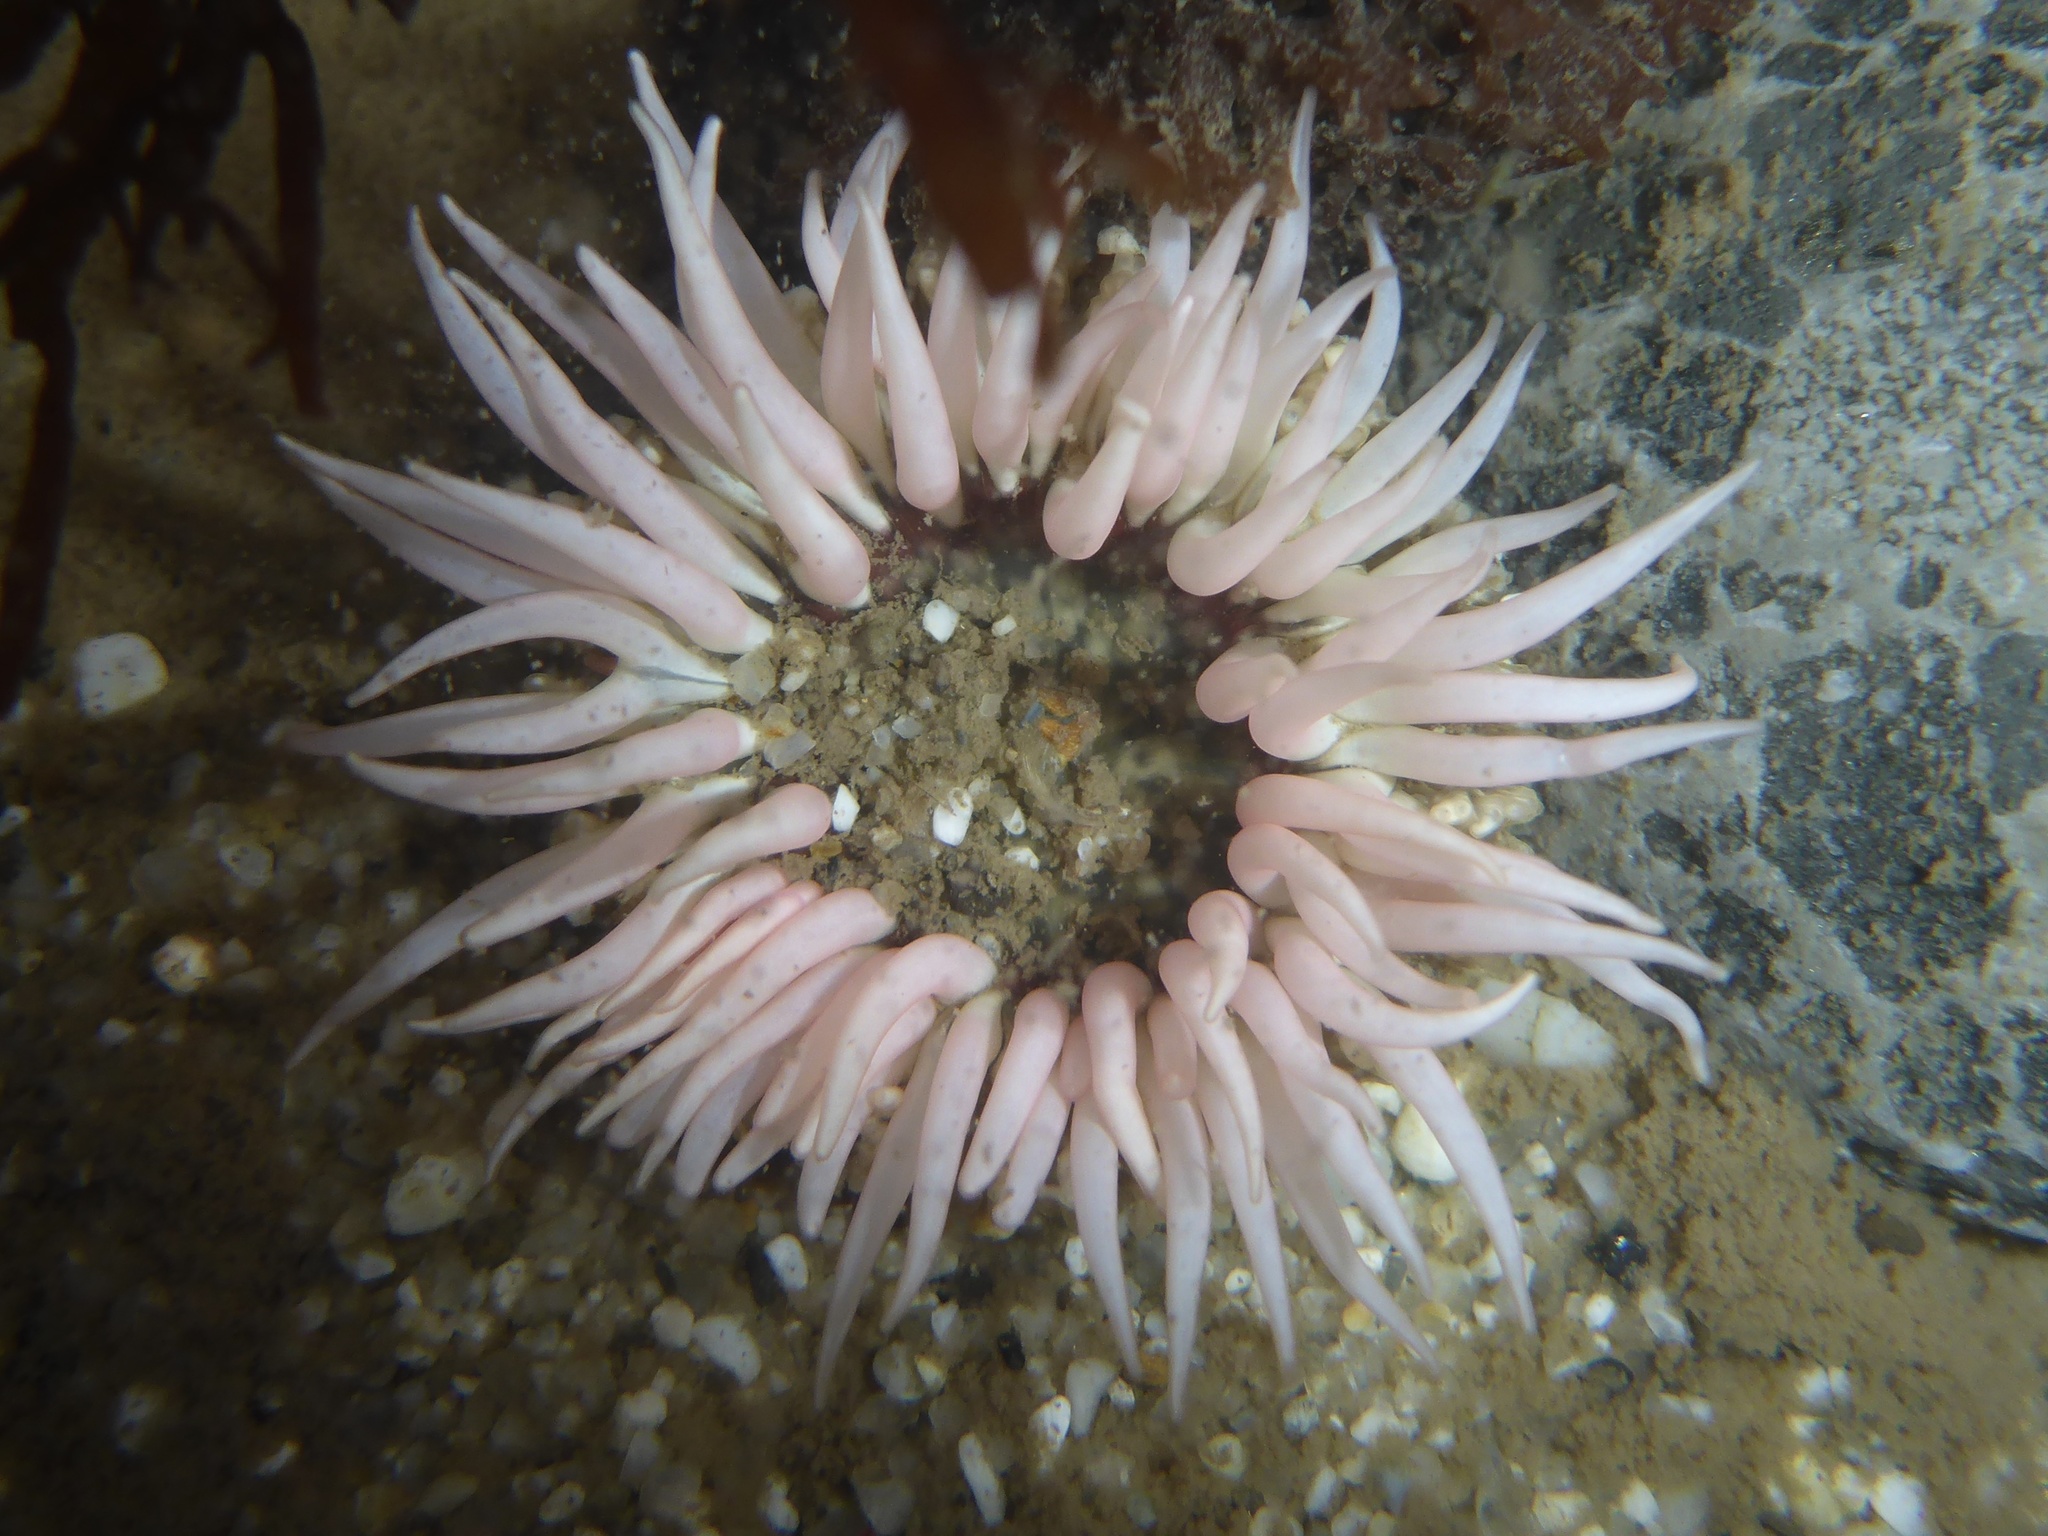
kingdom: Animalia
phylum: Cnidaria
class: Anthozoa
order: Actiniaria
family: Actiniidae
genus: Anthopleura
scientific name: Anthopleura artemisia
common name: Buried sea anemone
